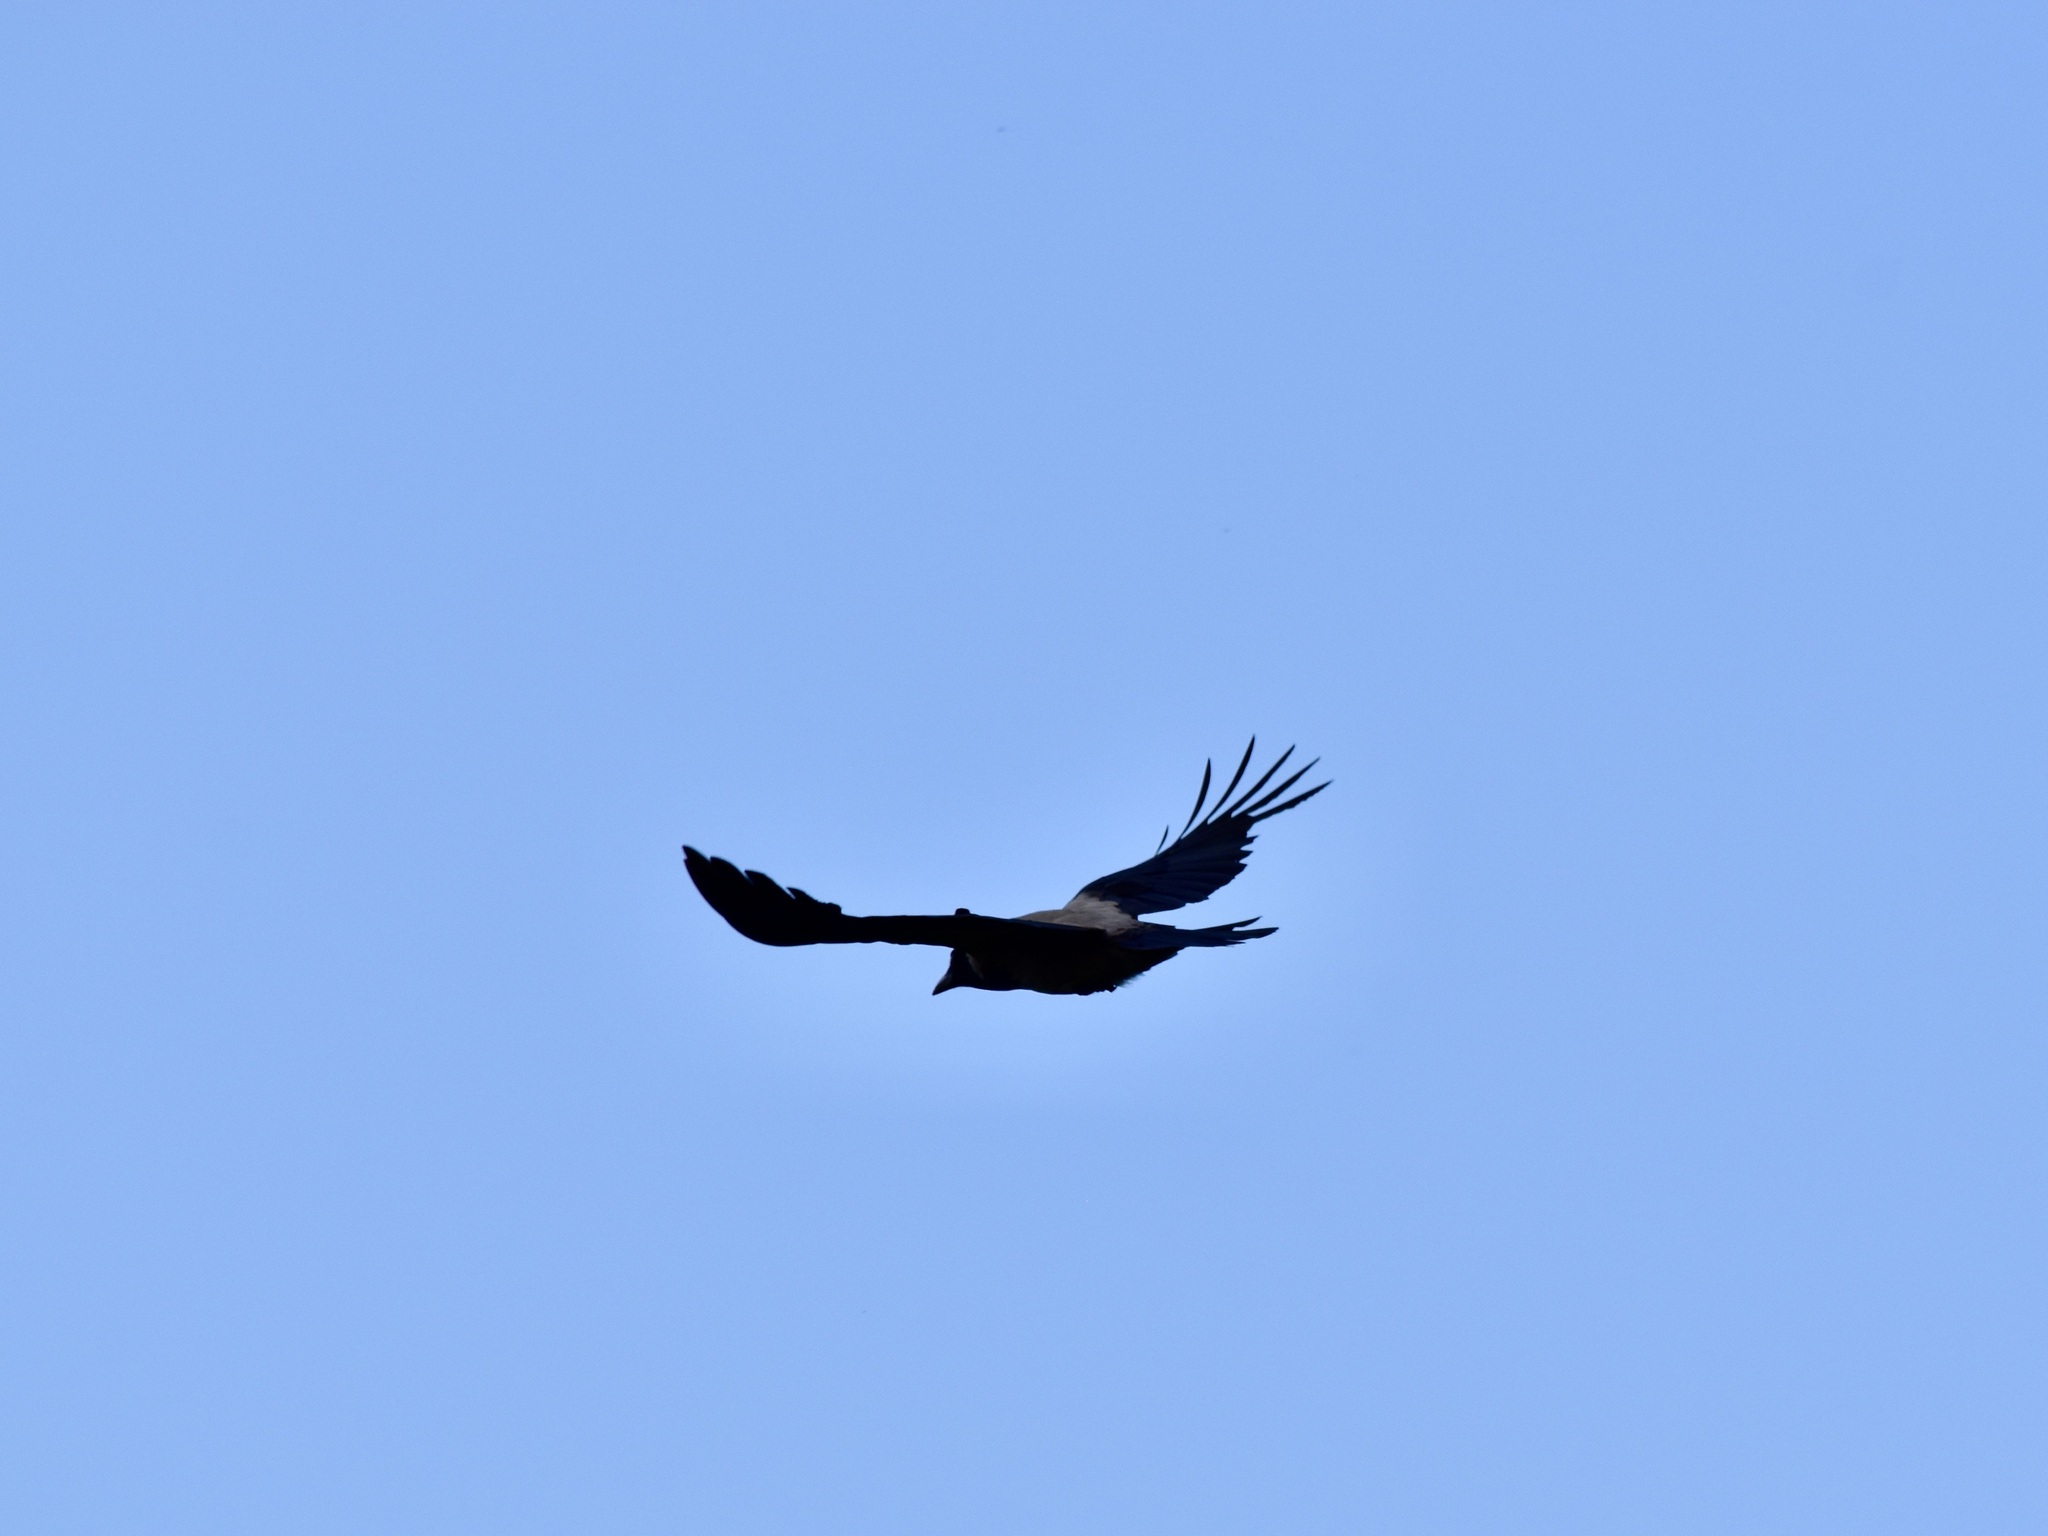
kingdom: Animalia
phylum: Chordata
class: Aves
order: Passeriformes
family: Corvidae
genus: Corvus
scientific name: Corvus cornix
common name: Hooded crow
